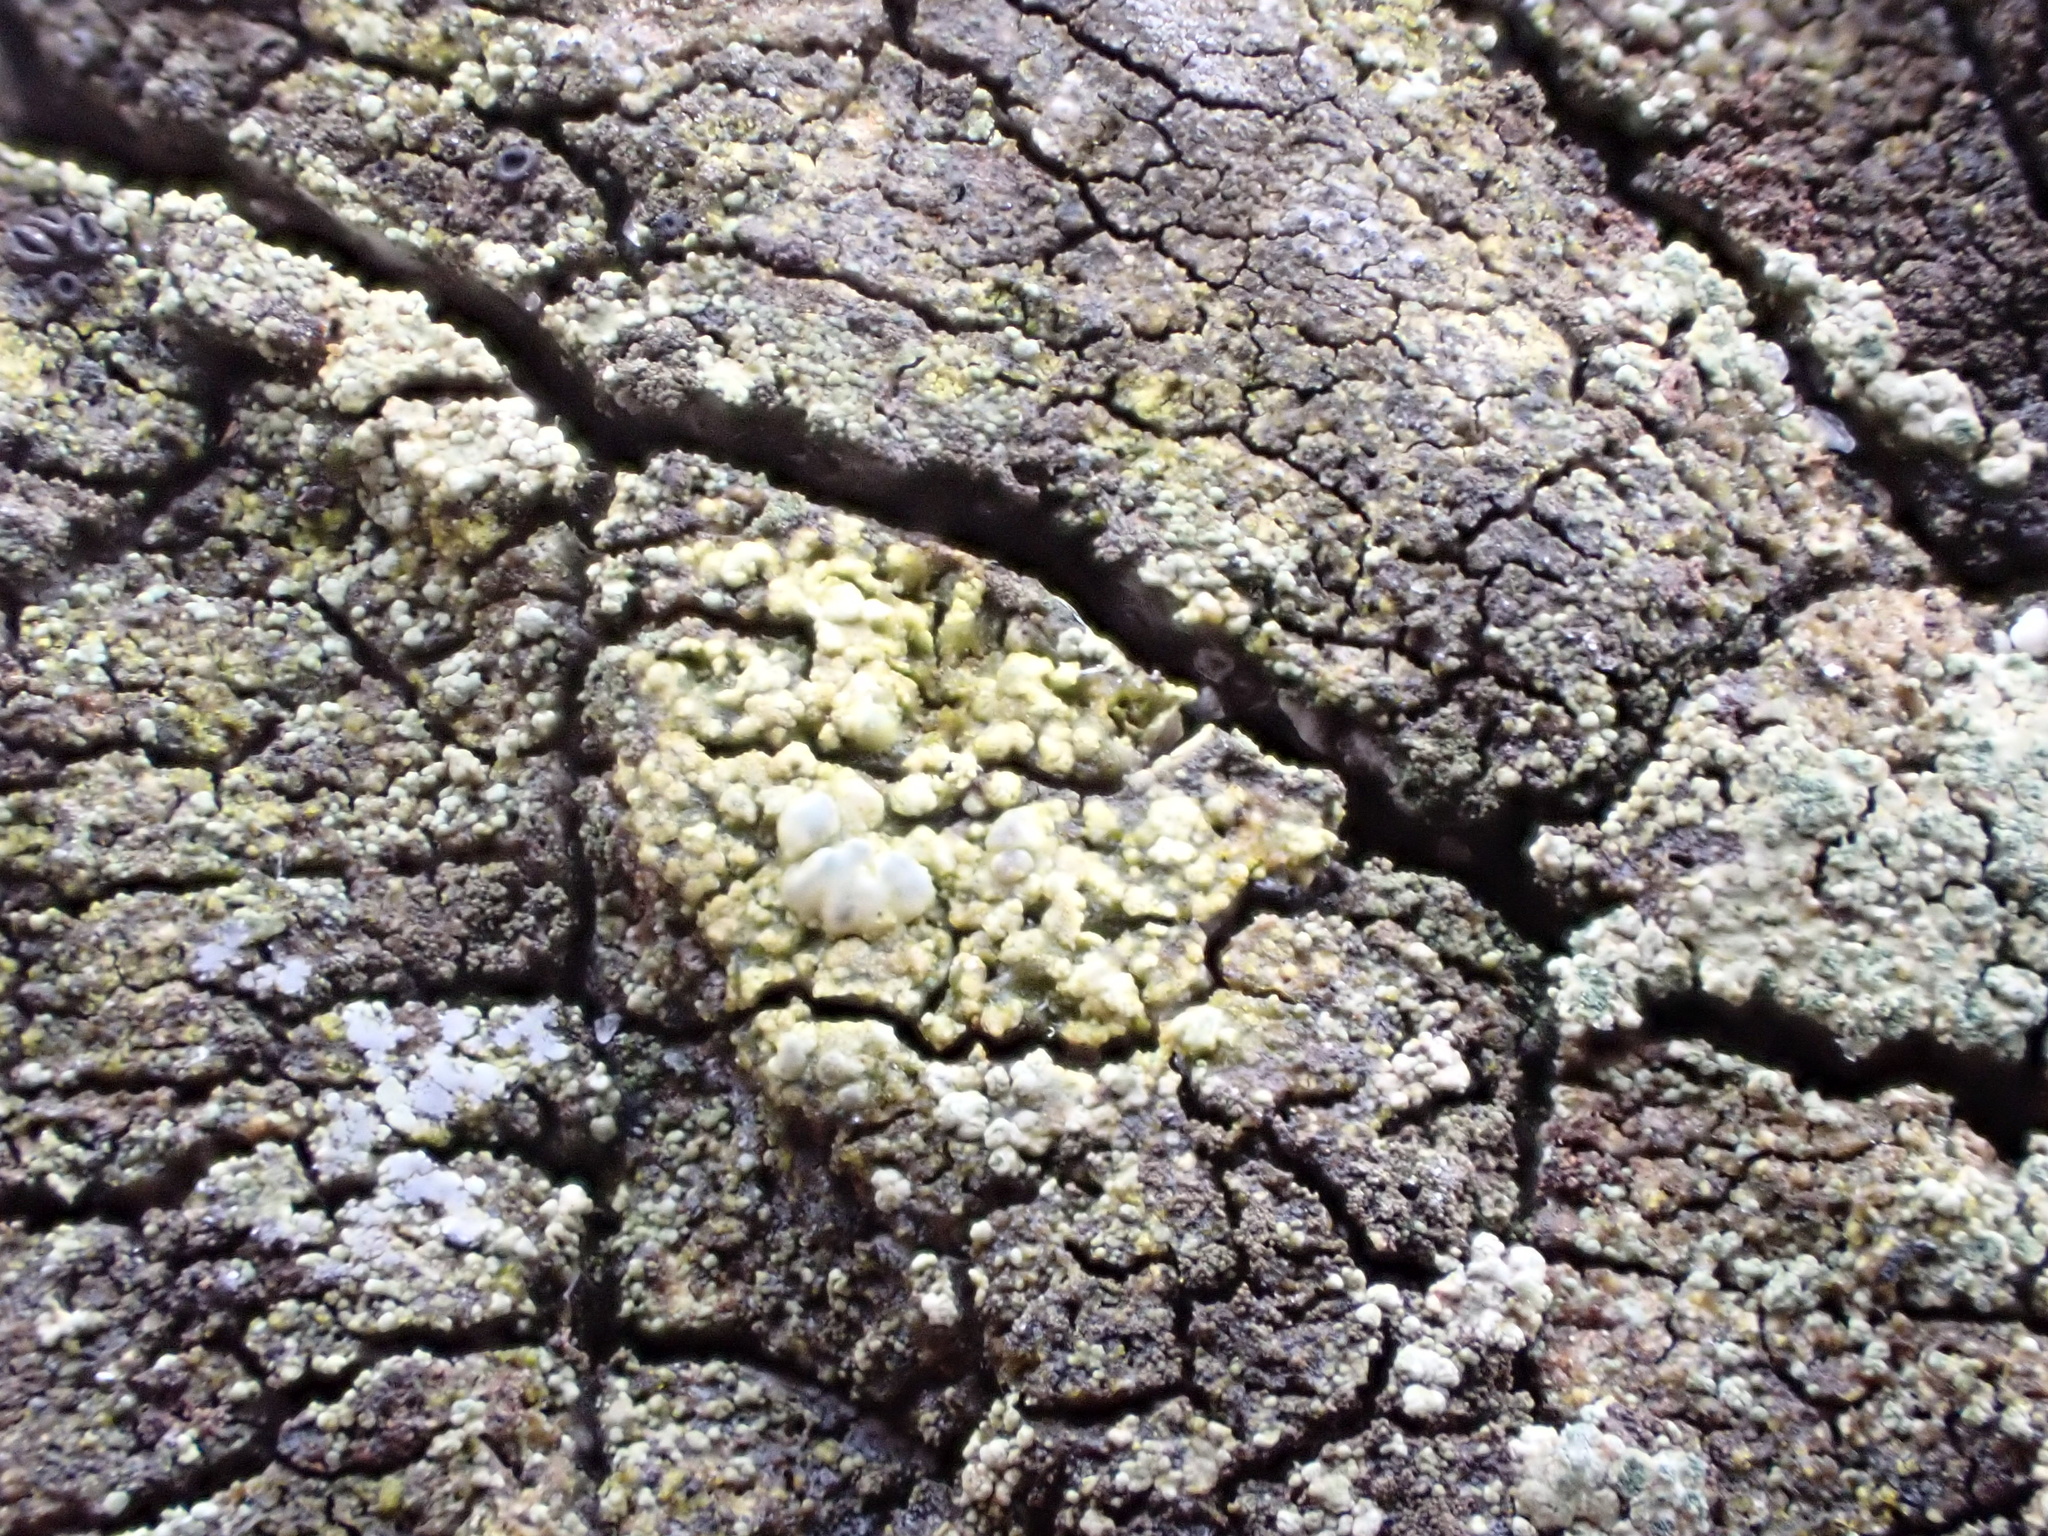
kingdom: Fungi
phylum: Ascomycota
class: Lecanoromycetes
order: Lecanorales
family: Lecanoraceae
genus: Lecanora
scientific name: Lecanora sublivescens
